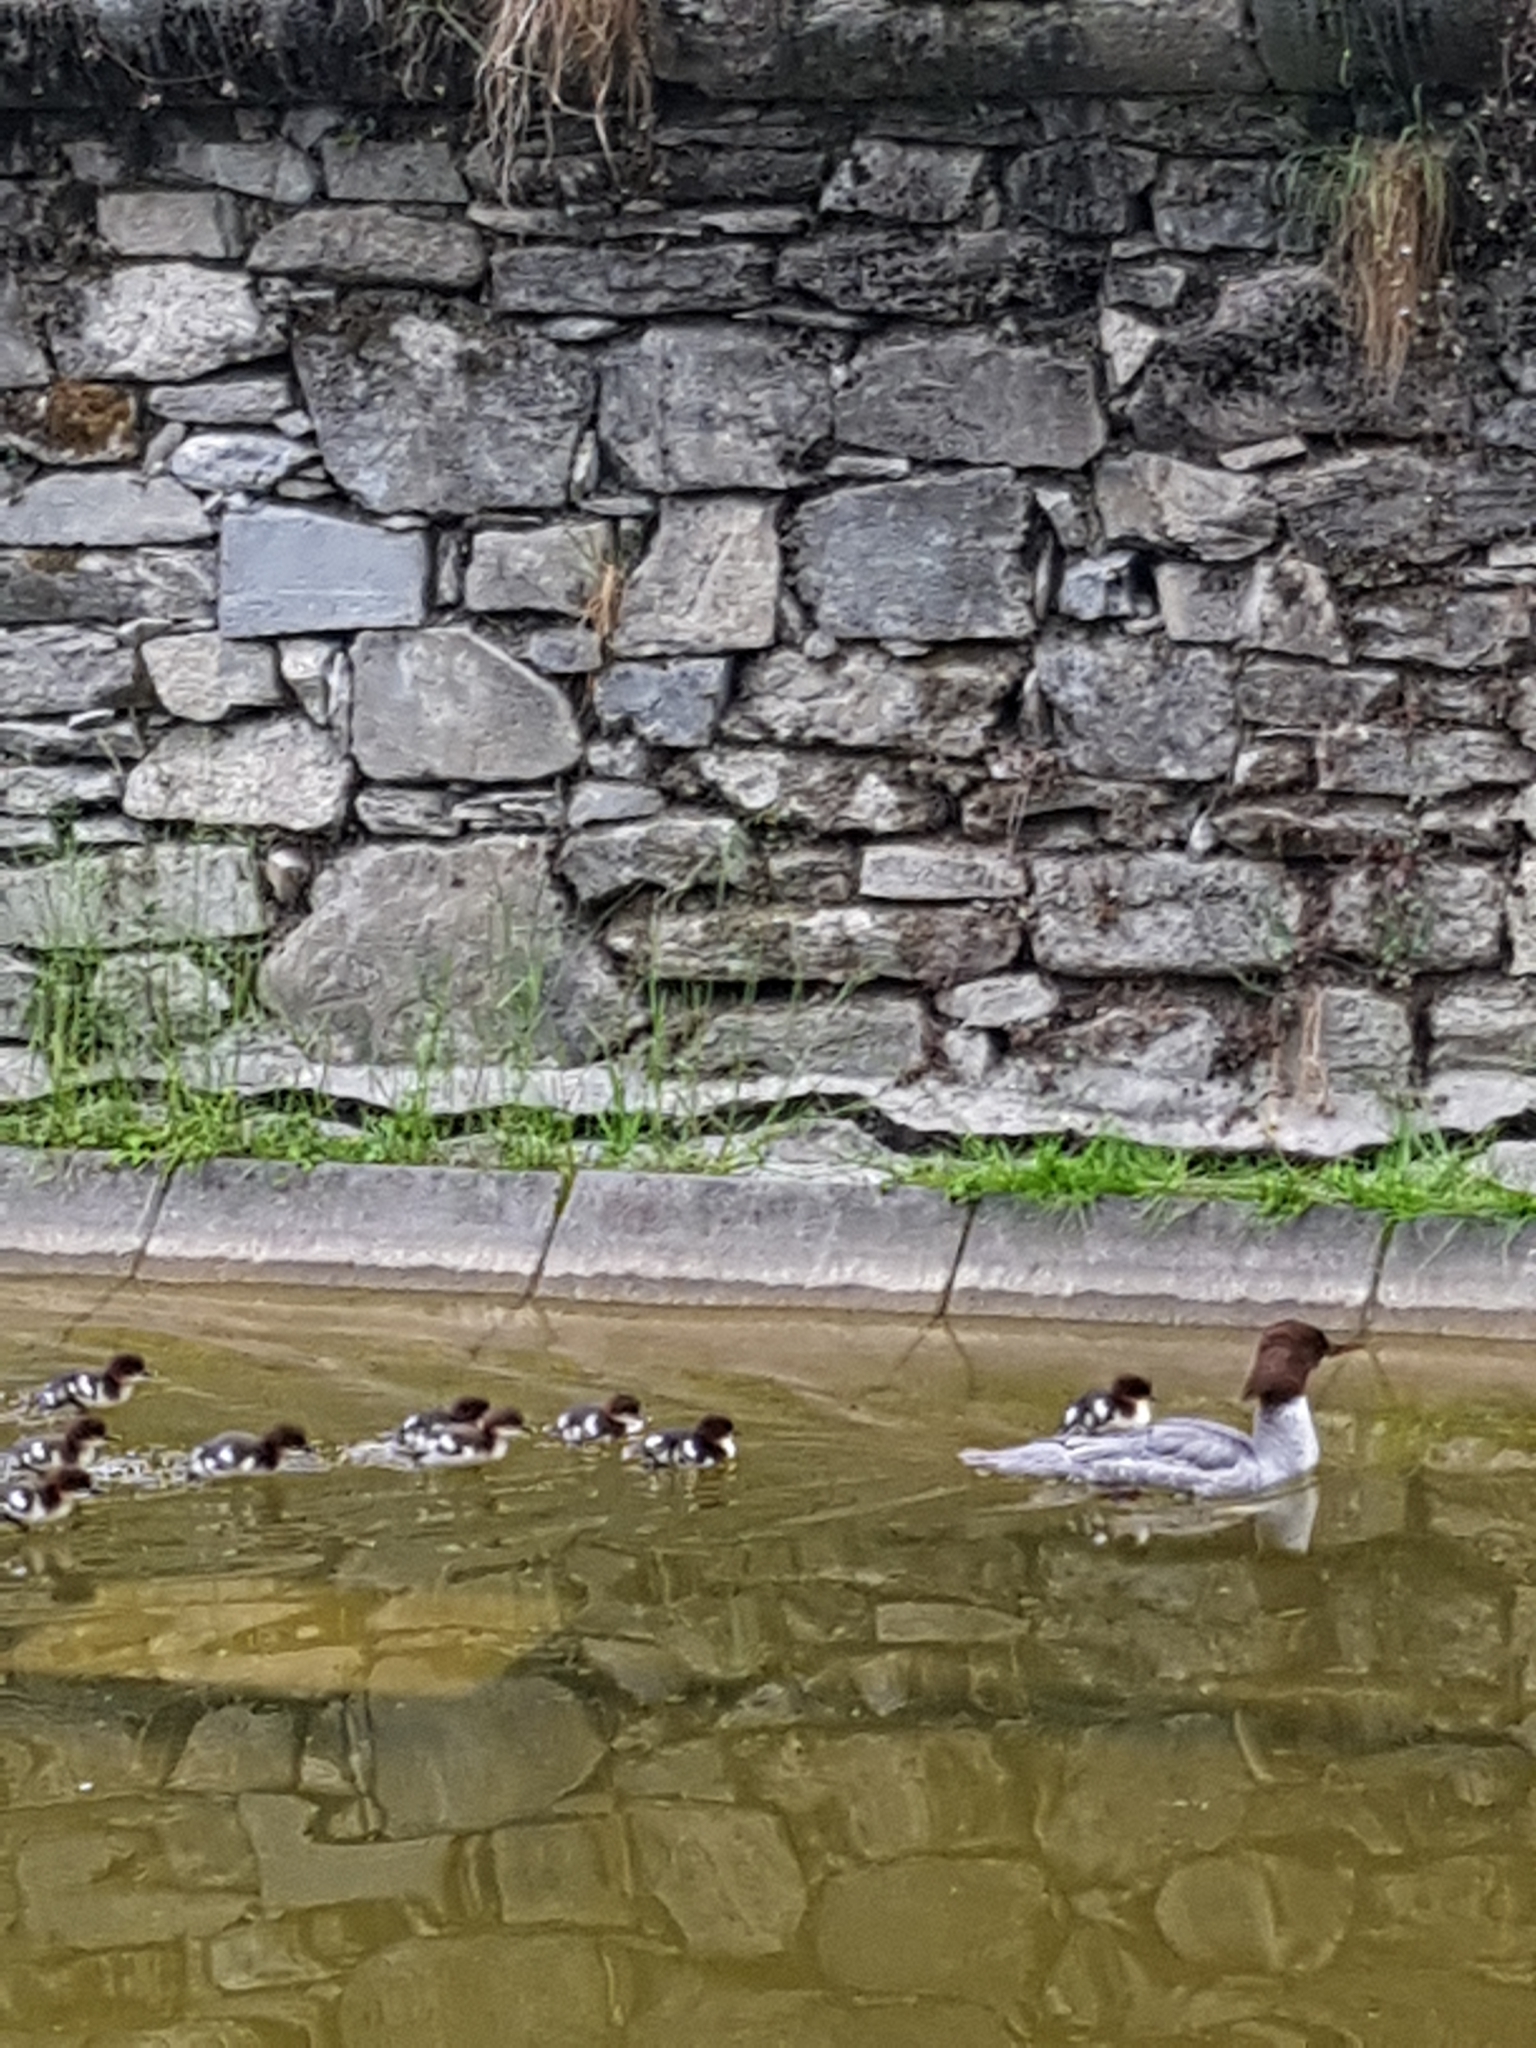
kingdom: Animalia
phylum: Chordata
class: Aves
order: Anseriformes
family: Anatidae
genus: Mergus
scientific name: Mergus merganser
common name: Common merganser
